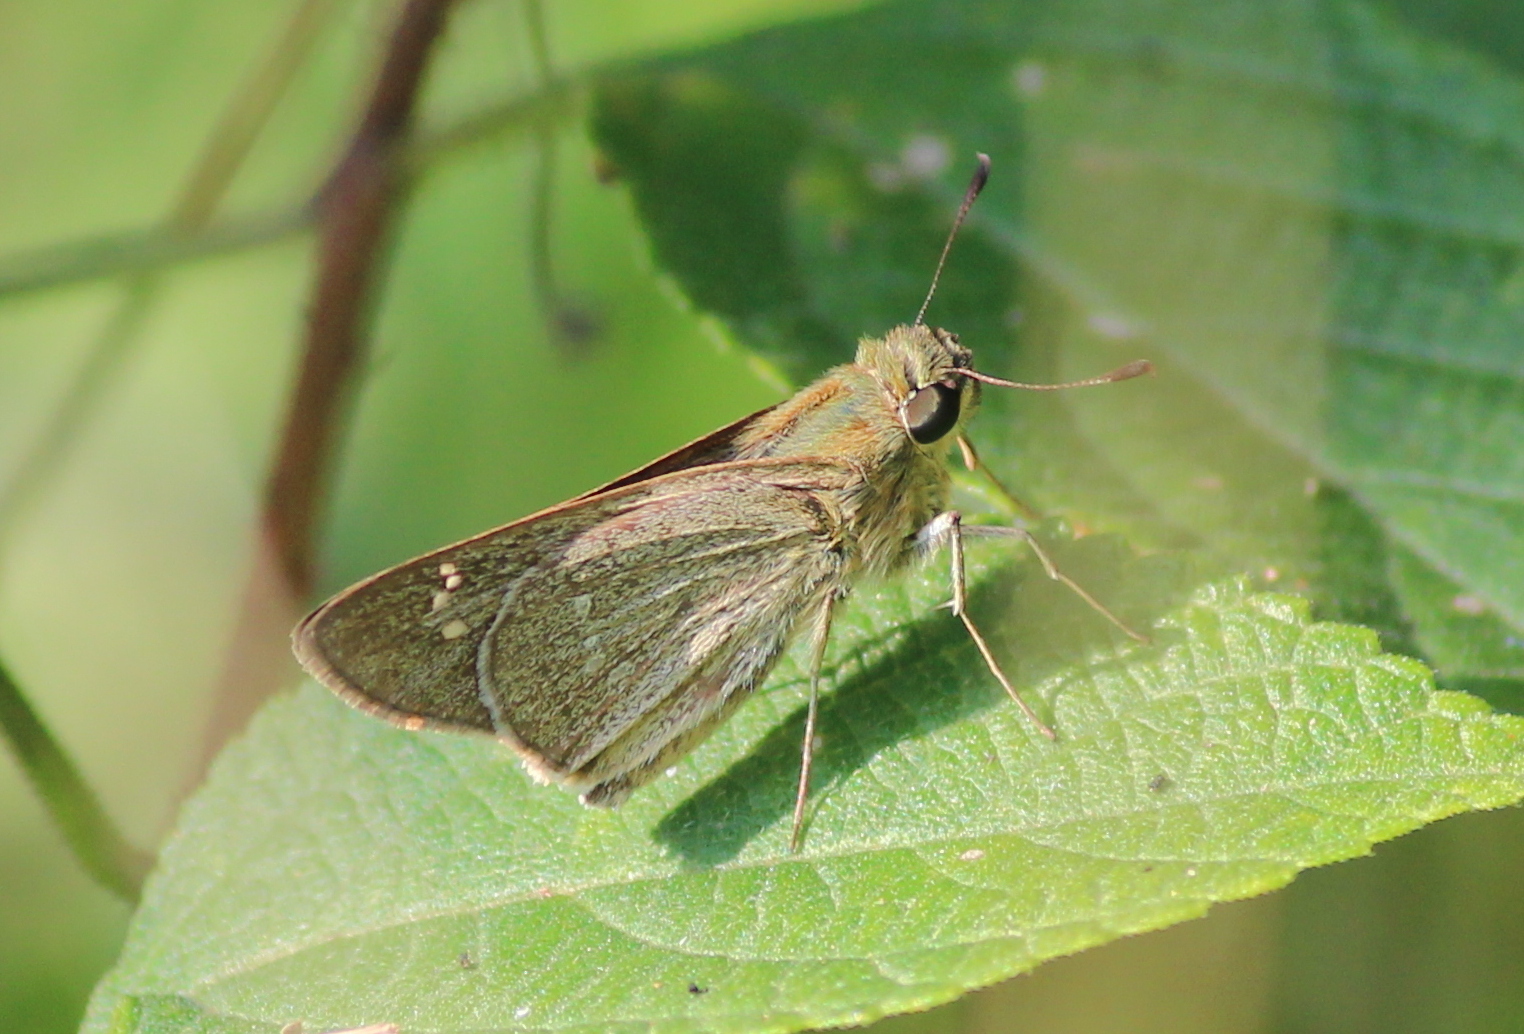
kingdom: Animalia
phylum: Arthropoda
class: Insecta
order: Lepidoptera
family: Hesperiidae
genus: Borbo
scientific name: Borbo cinnara
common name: Formosan swift
